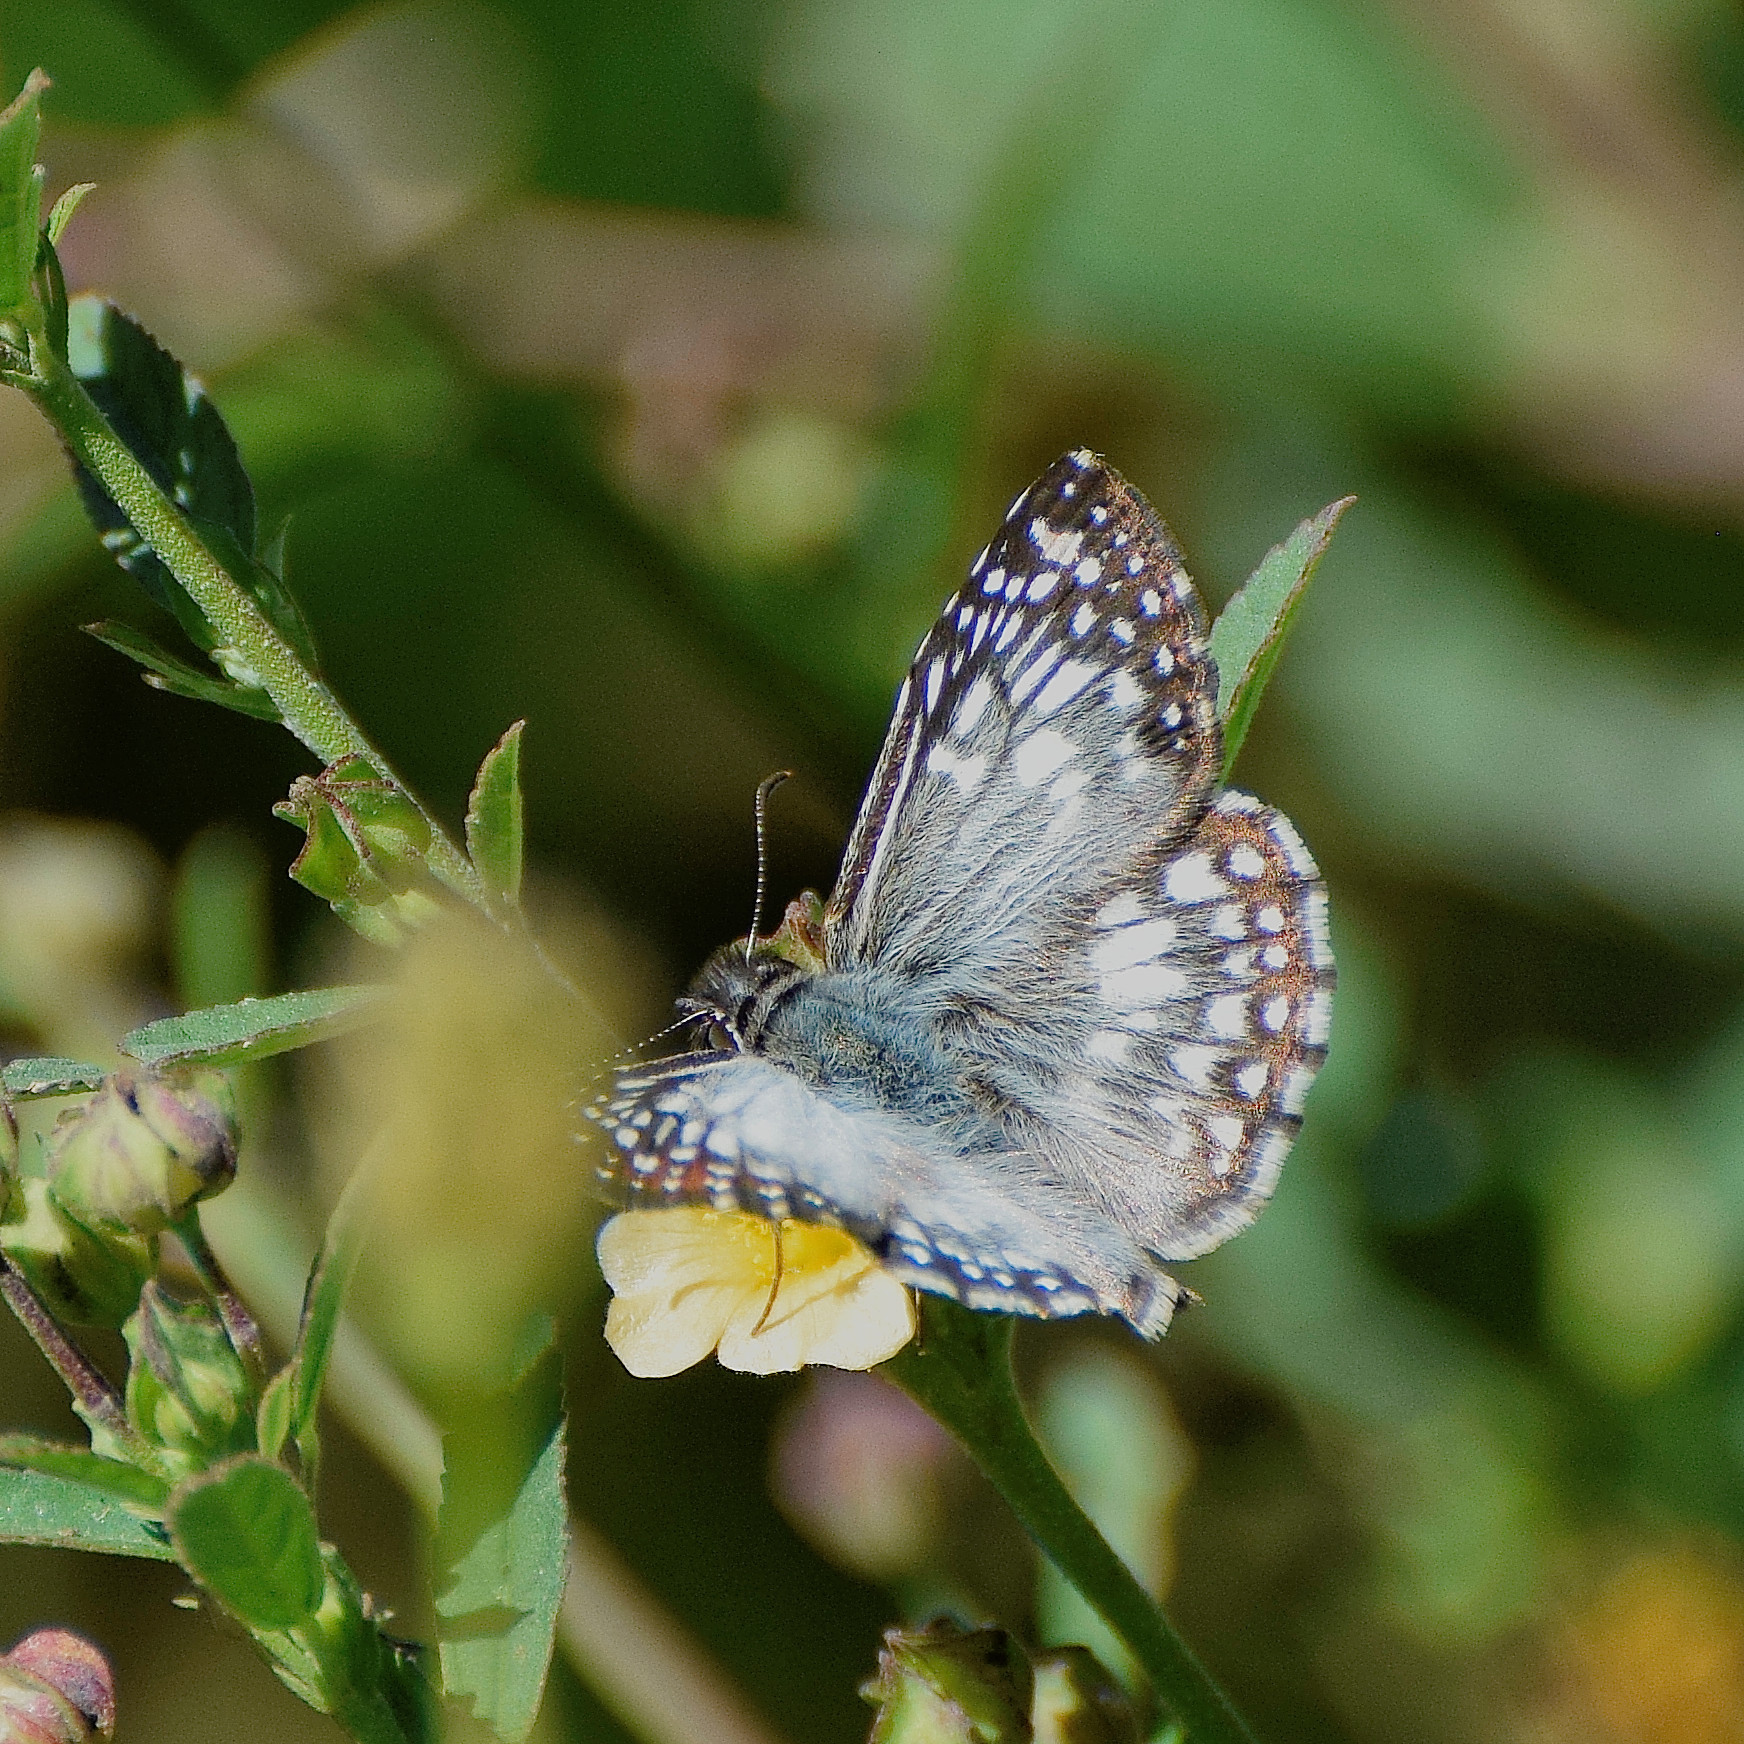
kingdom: Animalia
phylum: Arthropoda
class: Insecta
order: Lepidoptera
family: Hesperiidae
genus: Pyrgus
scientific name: Pyrgus oileus
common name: Tropical checkered-skipper
